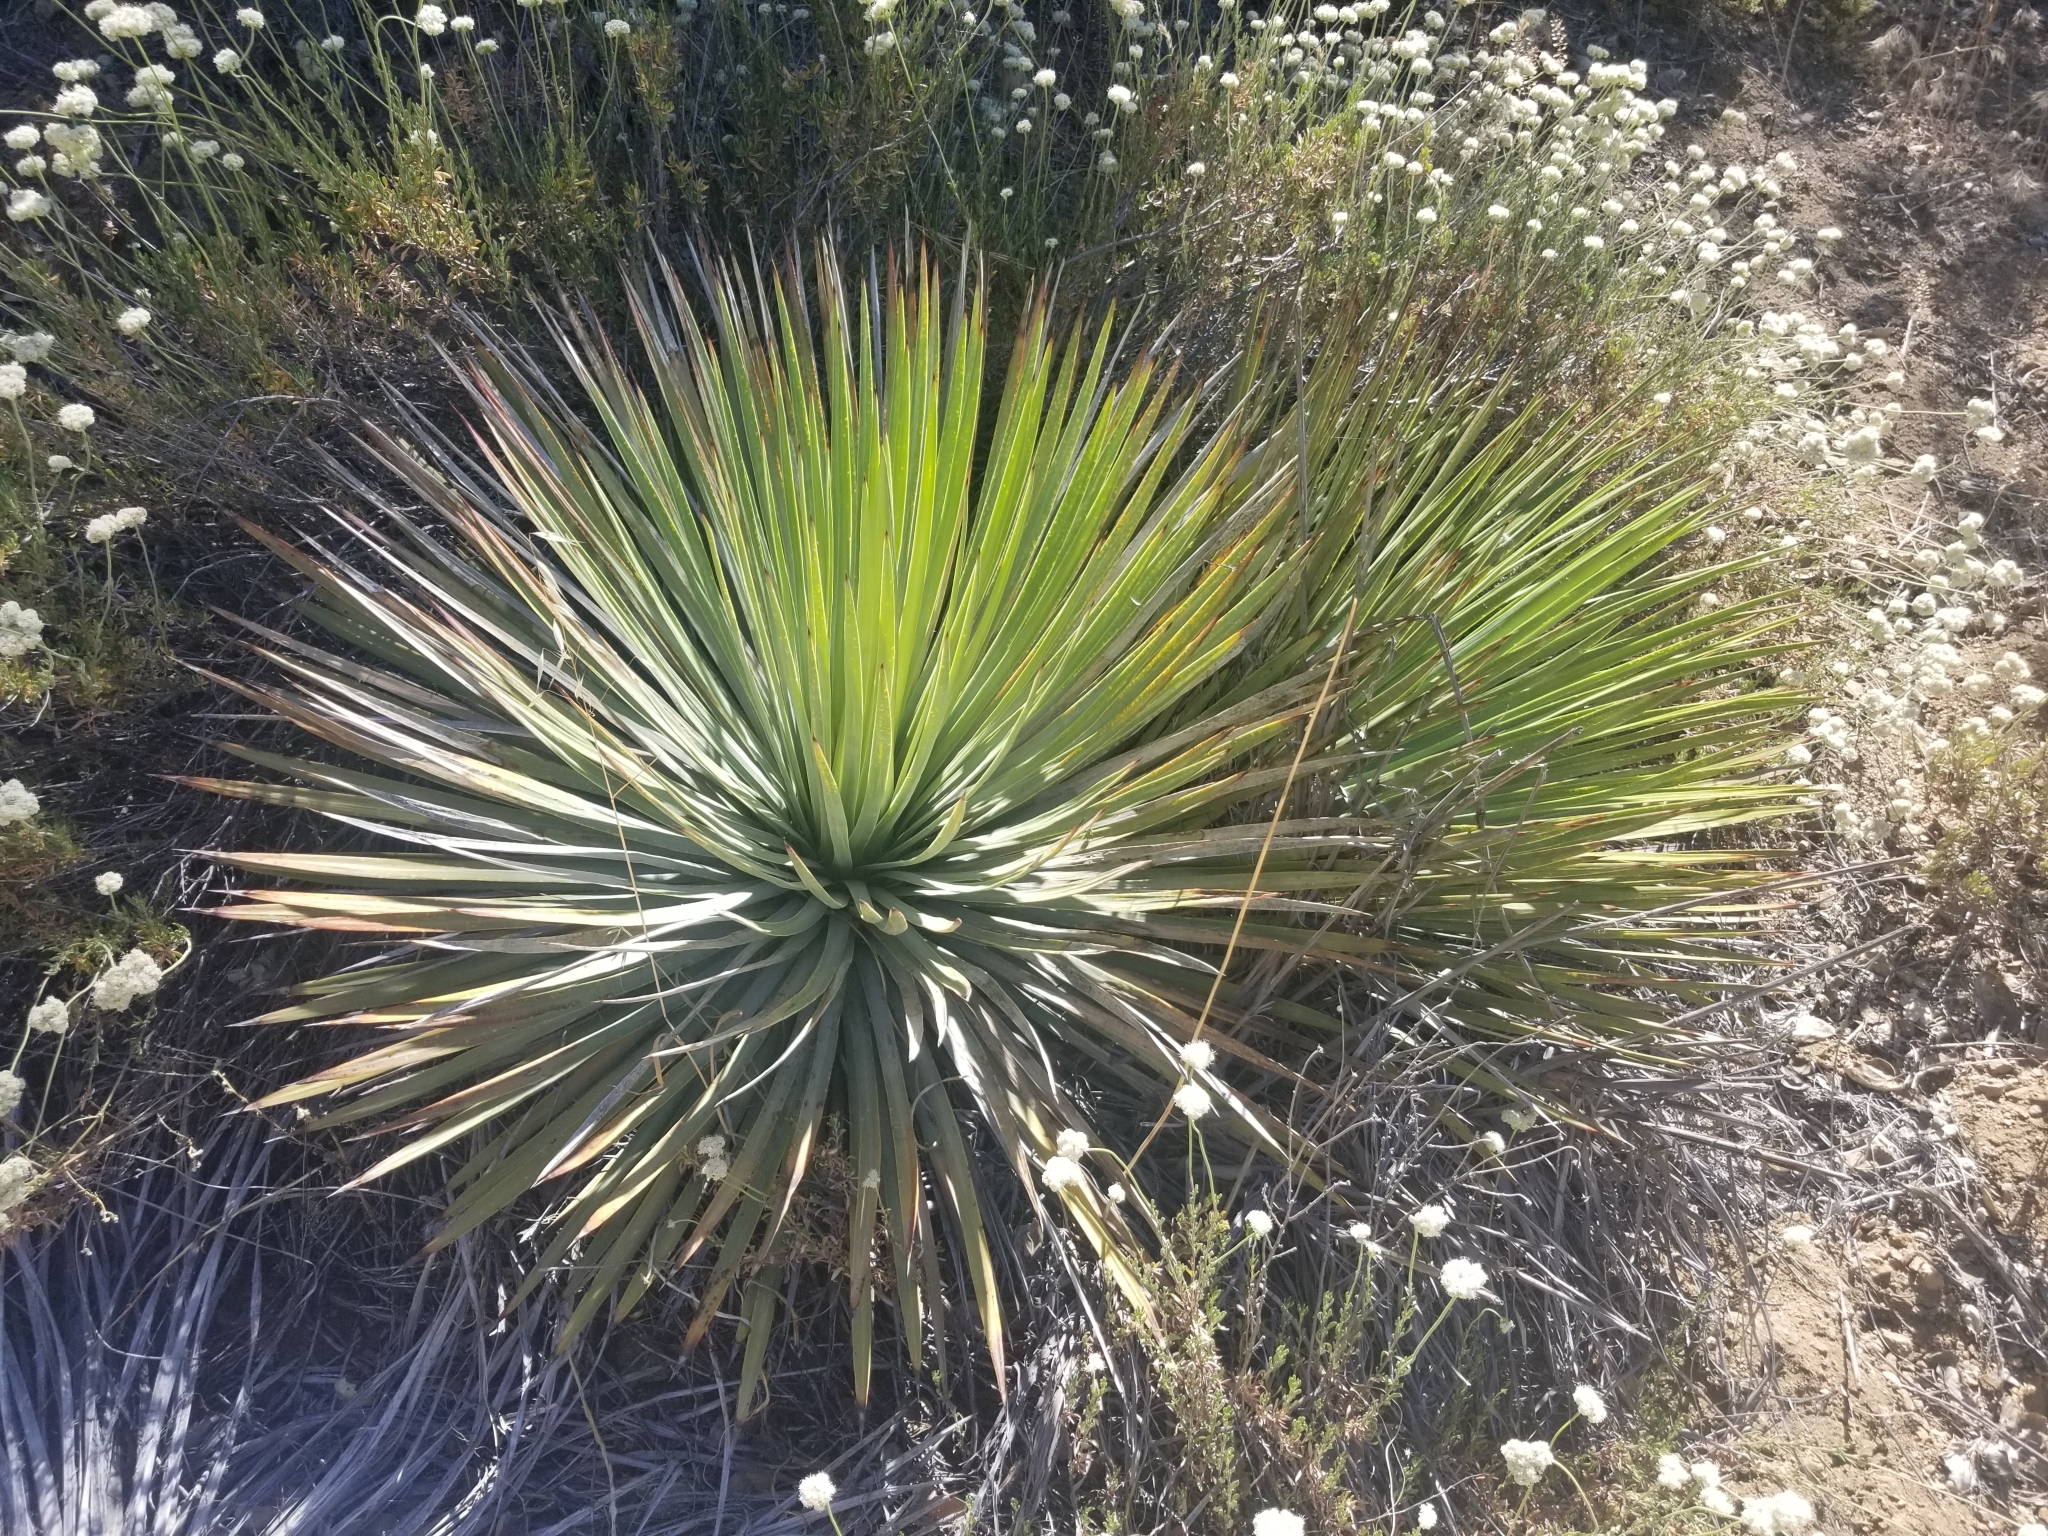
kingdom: Plantae
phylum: Tracheophyta
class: Liliopsida
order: Asparagales
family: Asparagaceae
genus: Hesperoyucca
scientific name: Hesperoyucca whipplei
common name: Our lord's-candle
